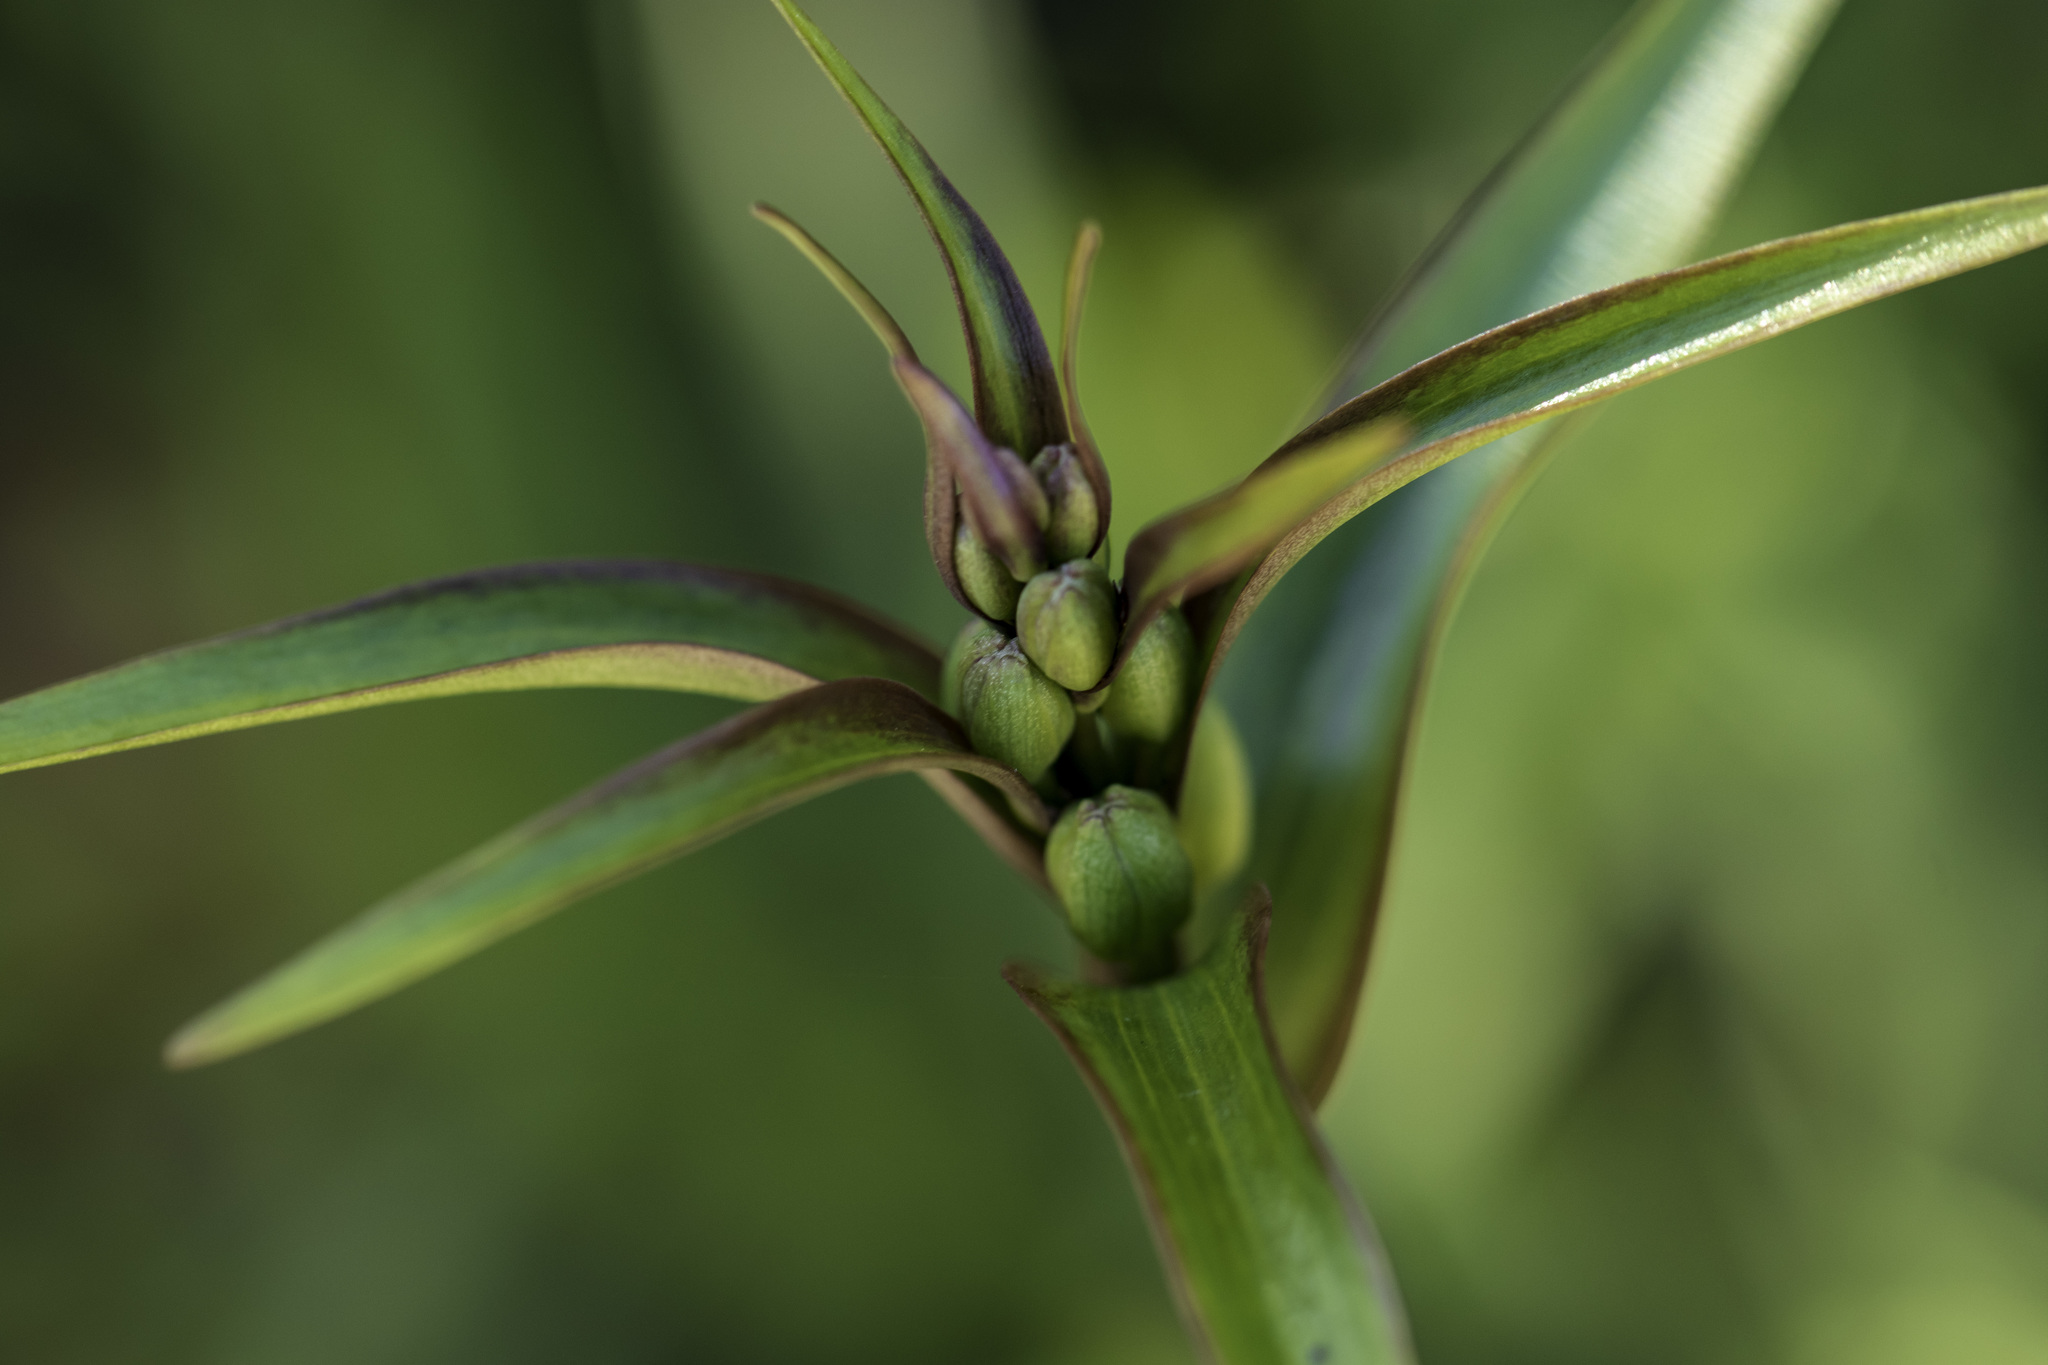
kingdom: Plantae
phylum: Tracheophyta
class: Liliopsida
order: Liliales
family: Liliaceae
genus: Fritillaria
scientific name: Fritillaria ojaiensis
